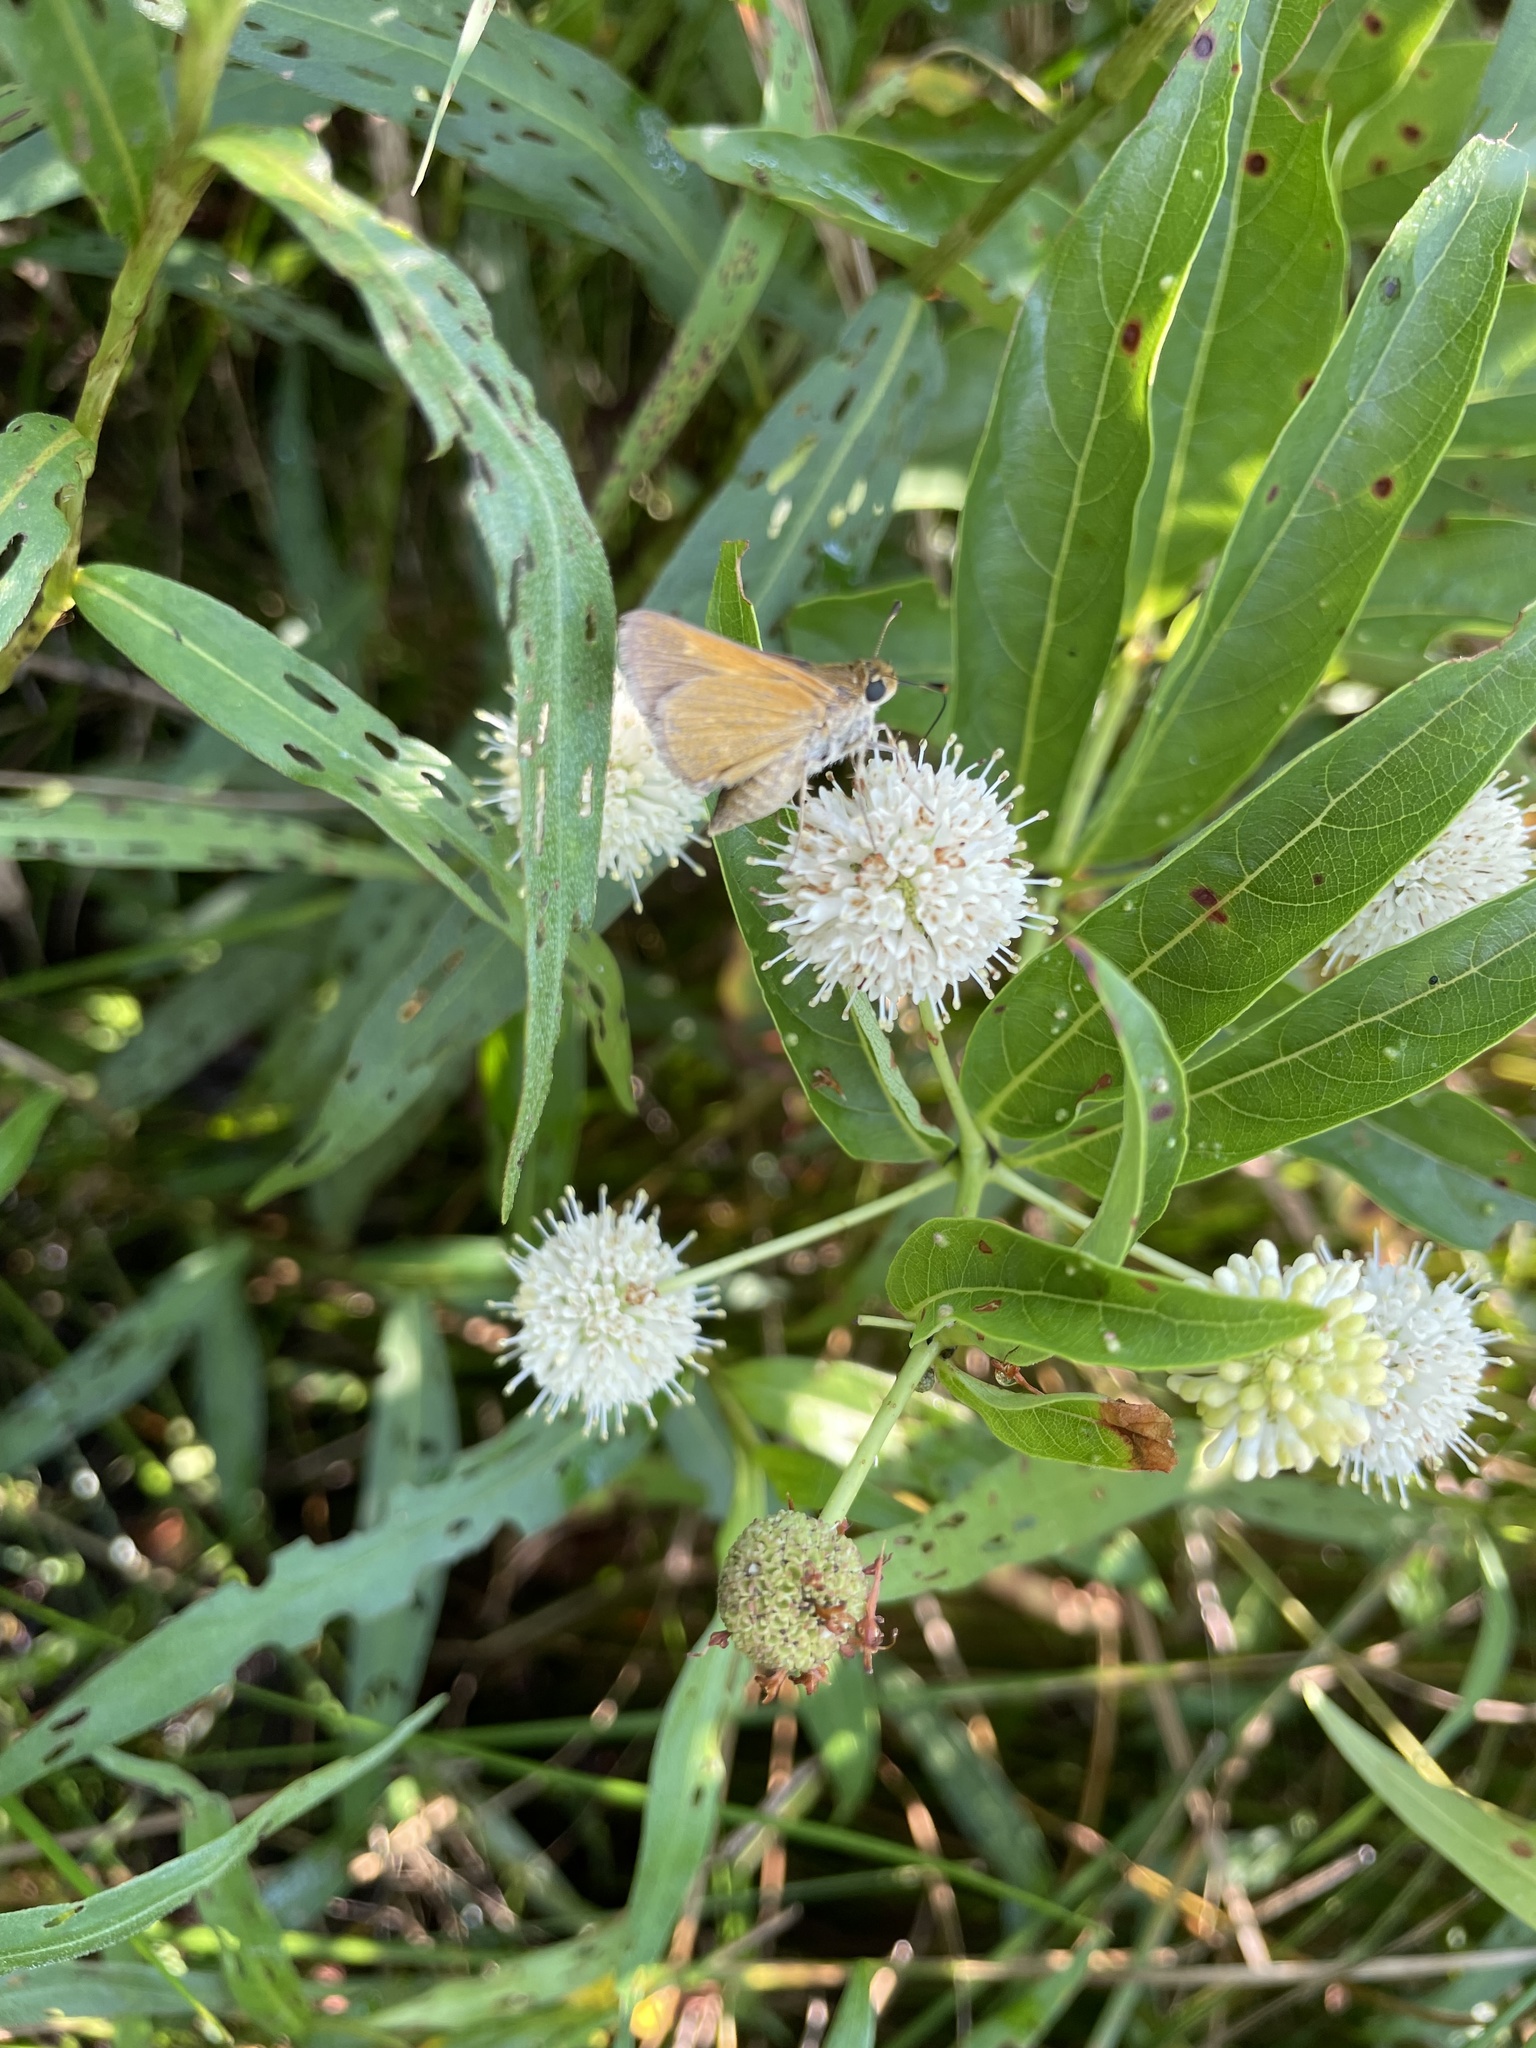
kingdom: Animalia
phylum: Arthropoda
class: Insecta
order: Lepidoptera
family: Hesperiidae
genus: Polites
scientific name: Polites themistocles
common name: Tawny-edged skipper
